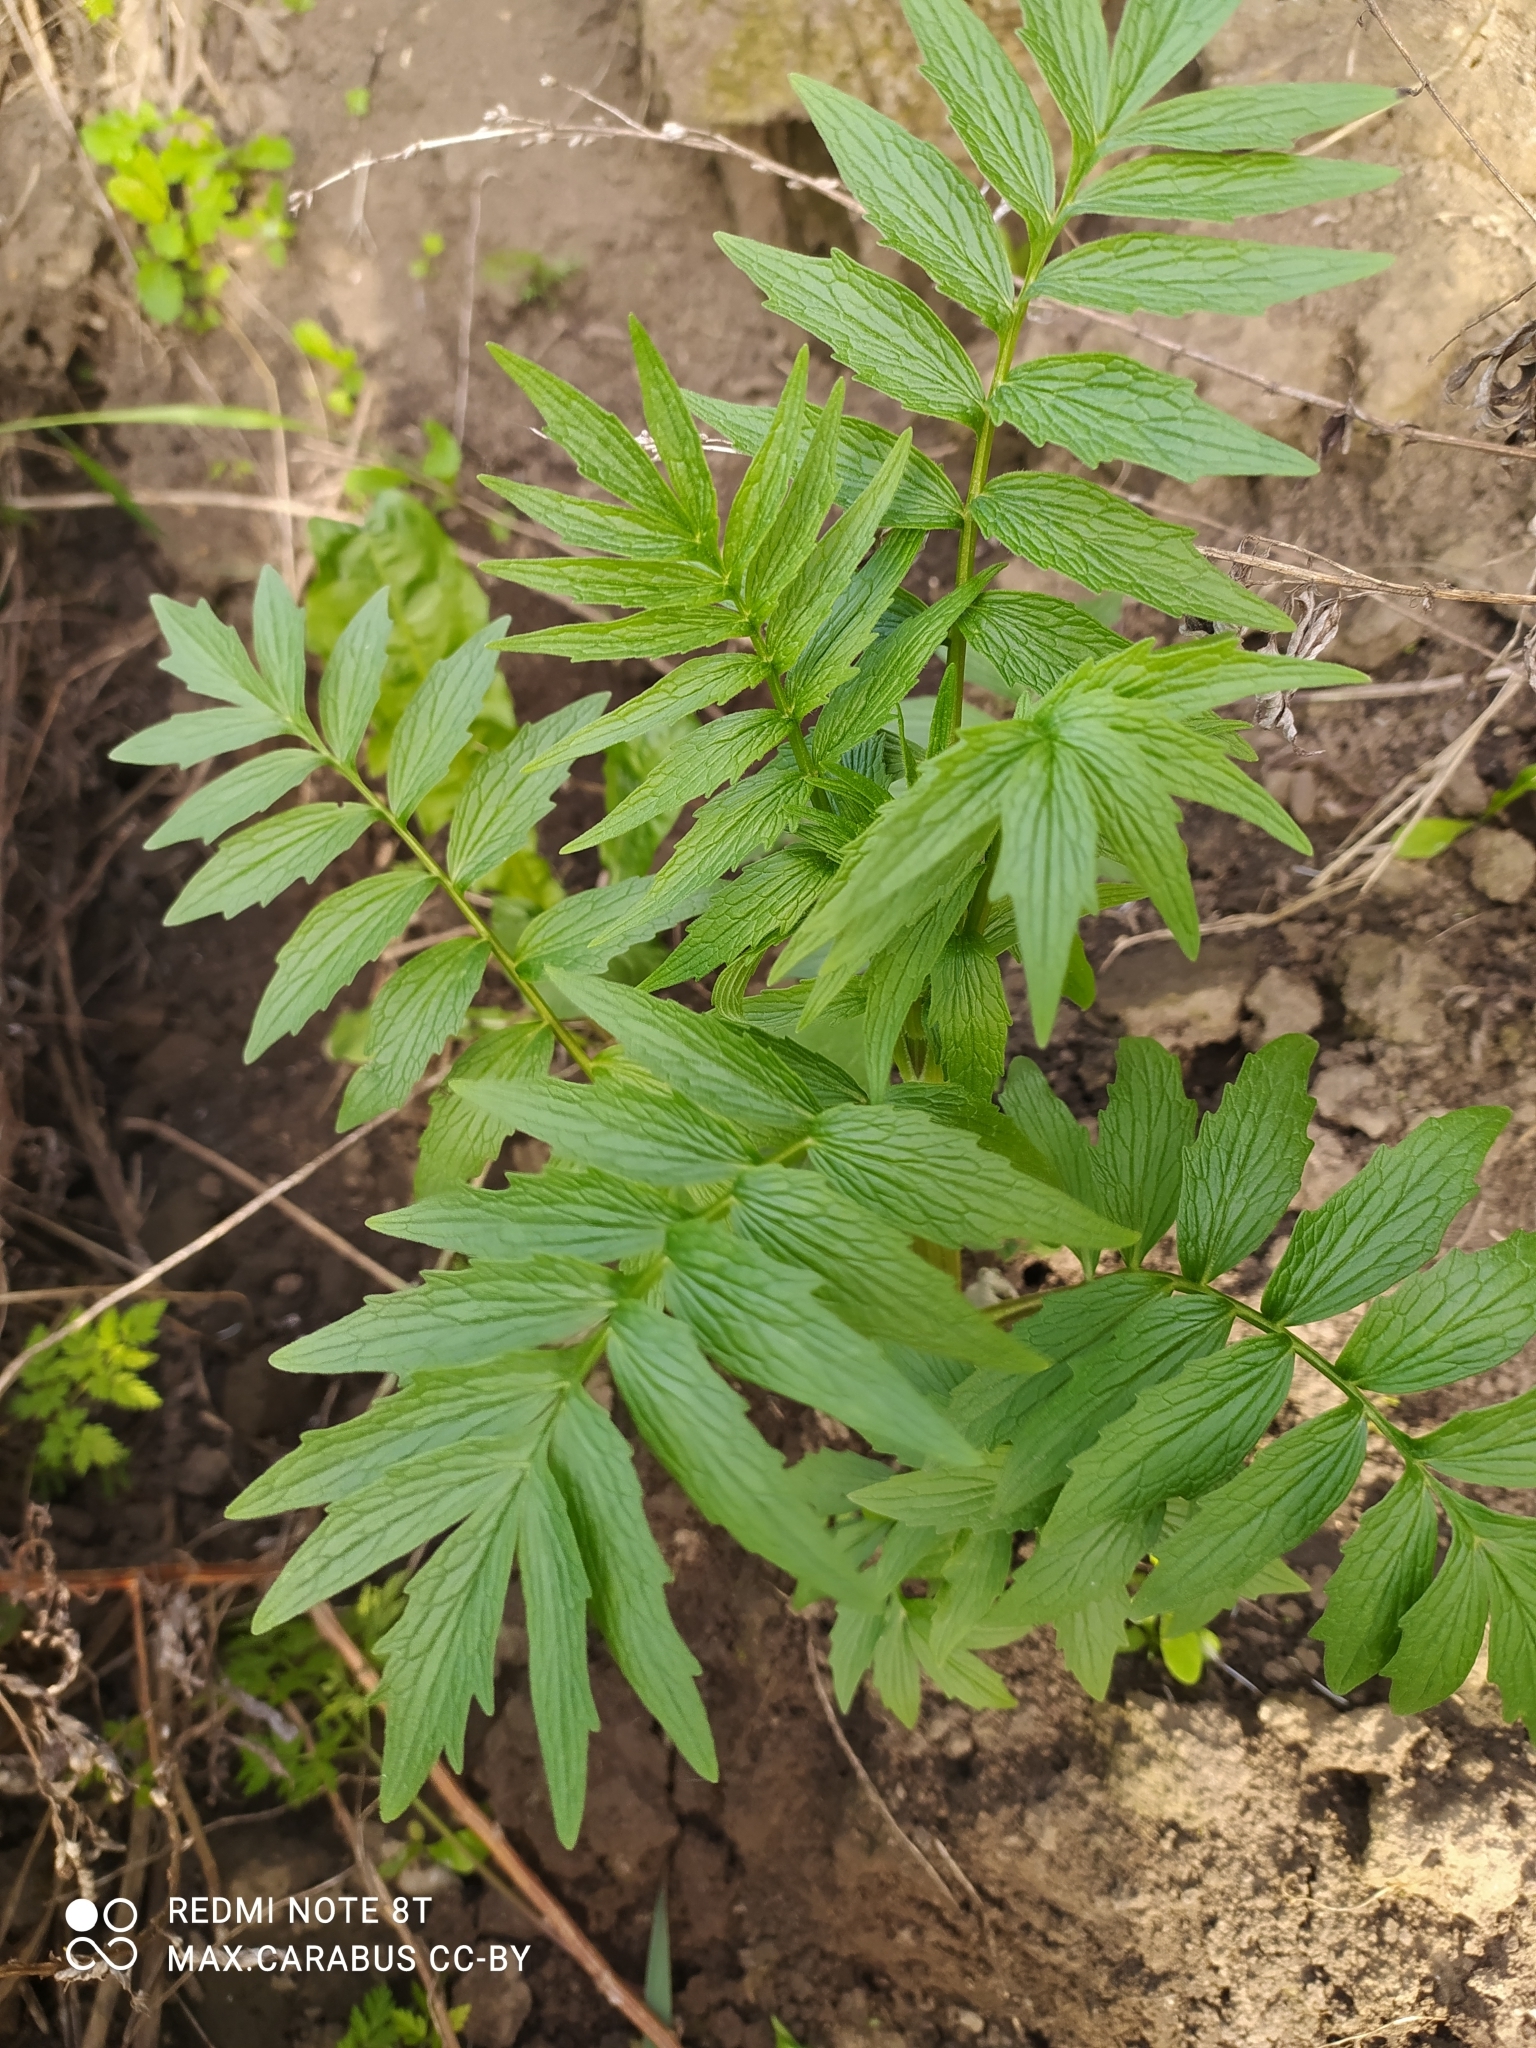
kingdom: Plantae
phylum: Tracheophyta
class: Magnoliopsida
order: Dipsacales
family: Caprifoliaceae
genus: Valeriana
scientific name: Valeriana officinalis
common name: Common valerian
